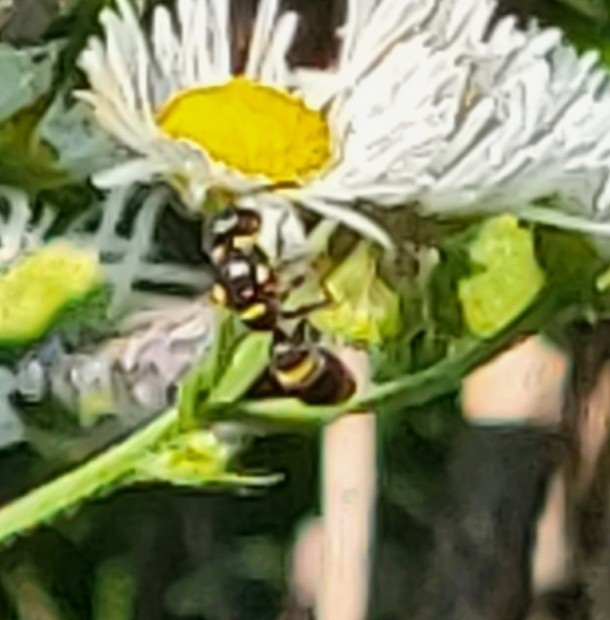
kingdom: Animalia
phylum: Arthropoda
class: Insecta
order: Hymenoptera
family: Eumenidae
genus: Parancistrocerus
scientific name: Parancistrocerus
